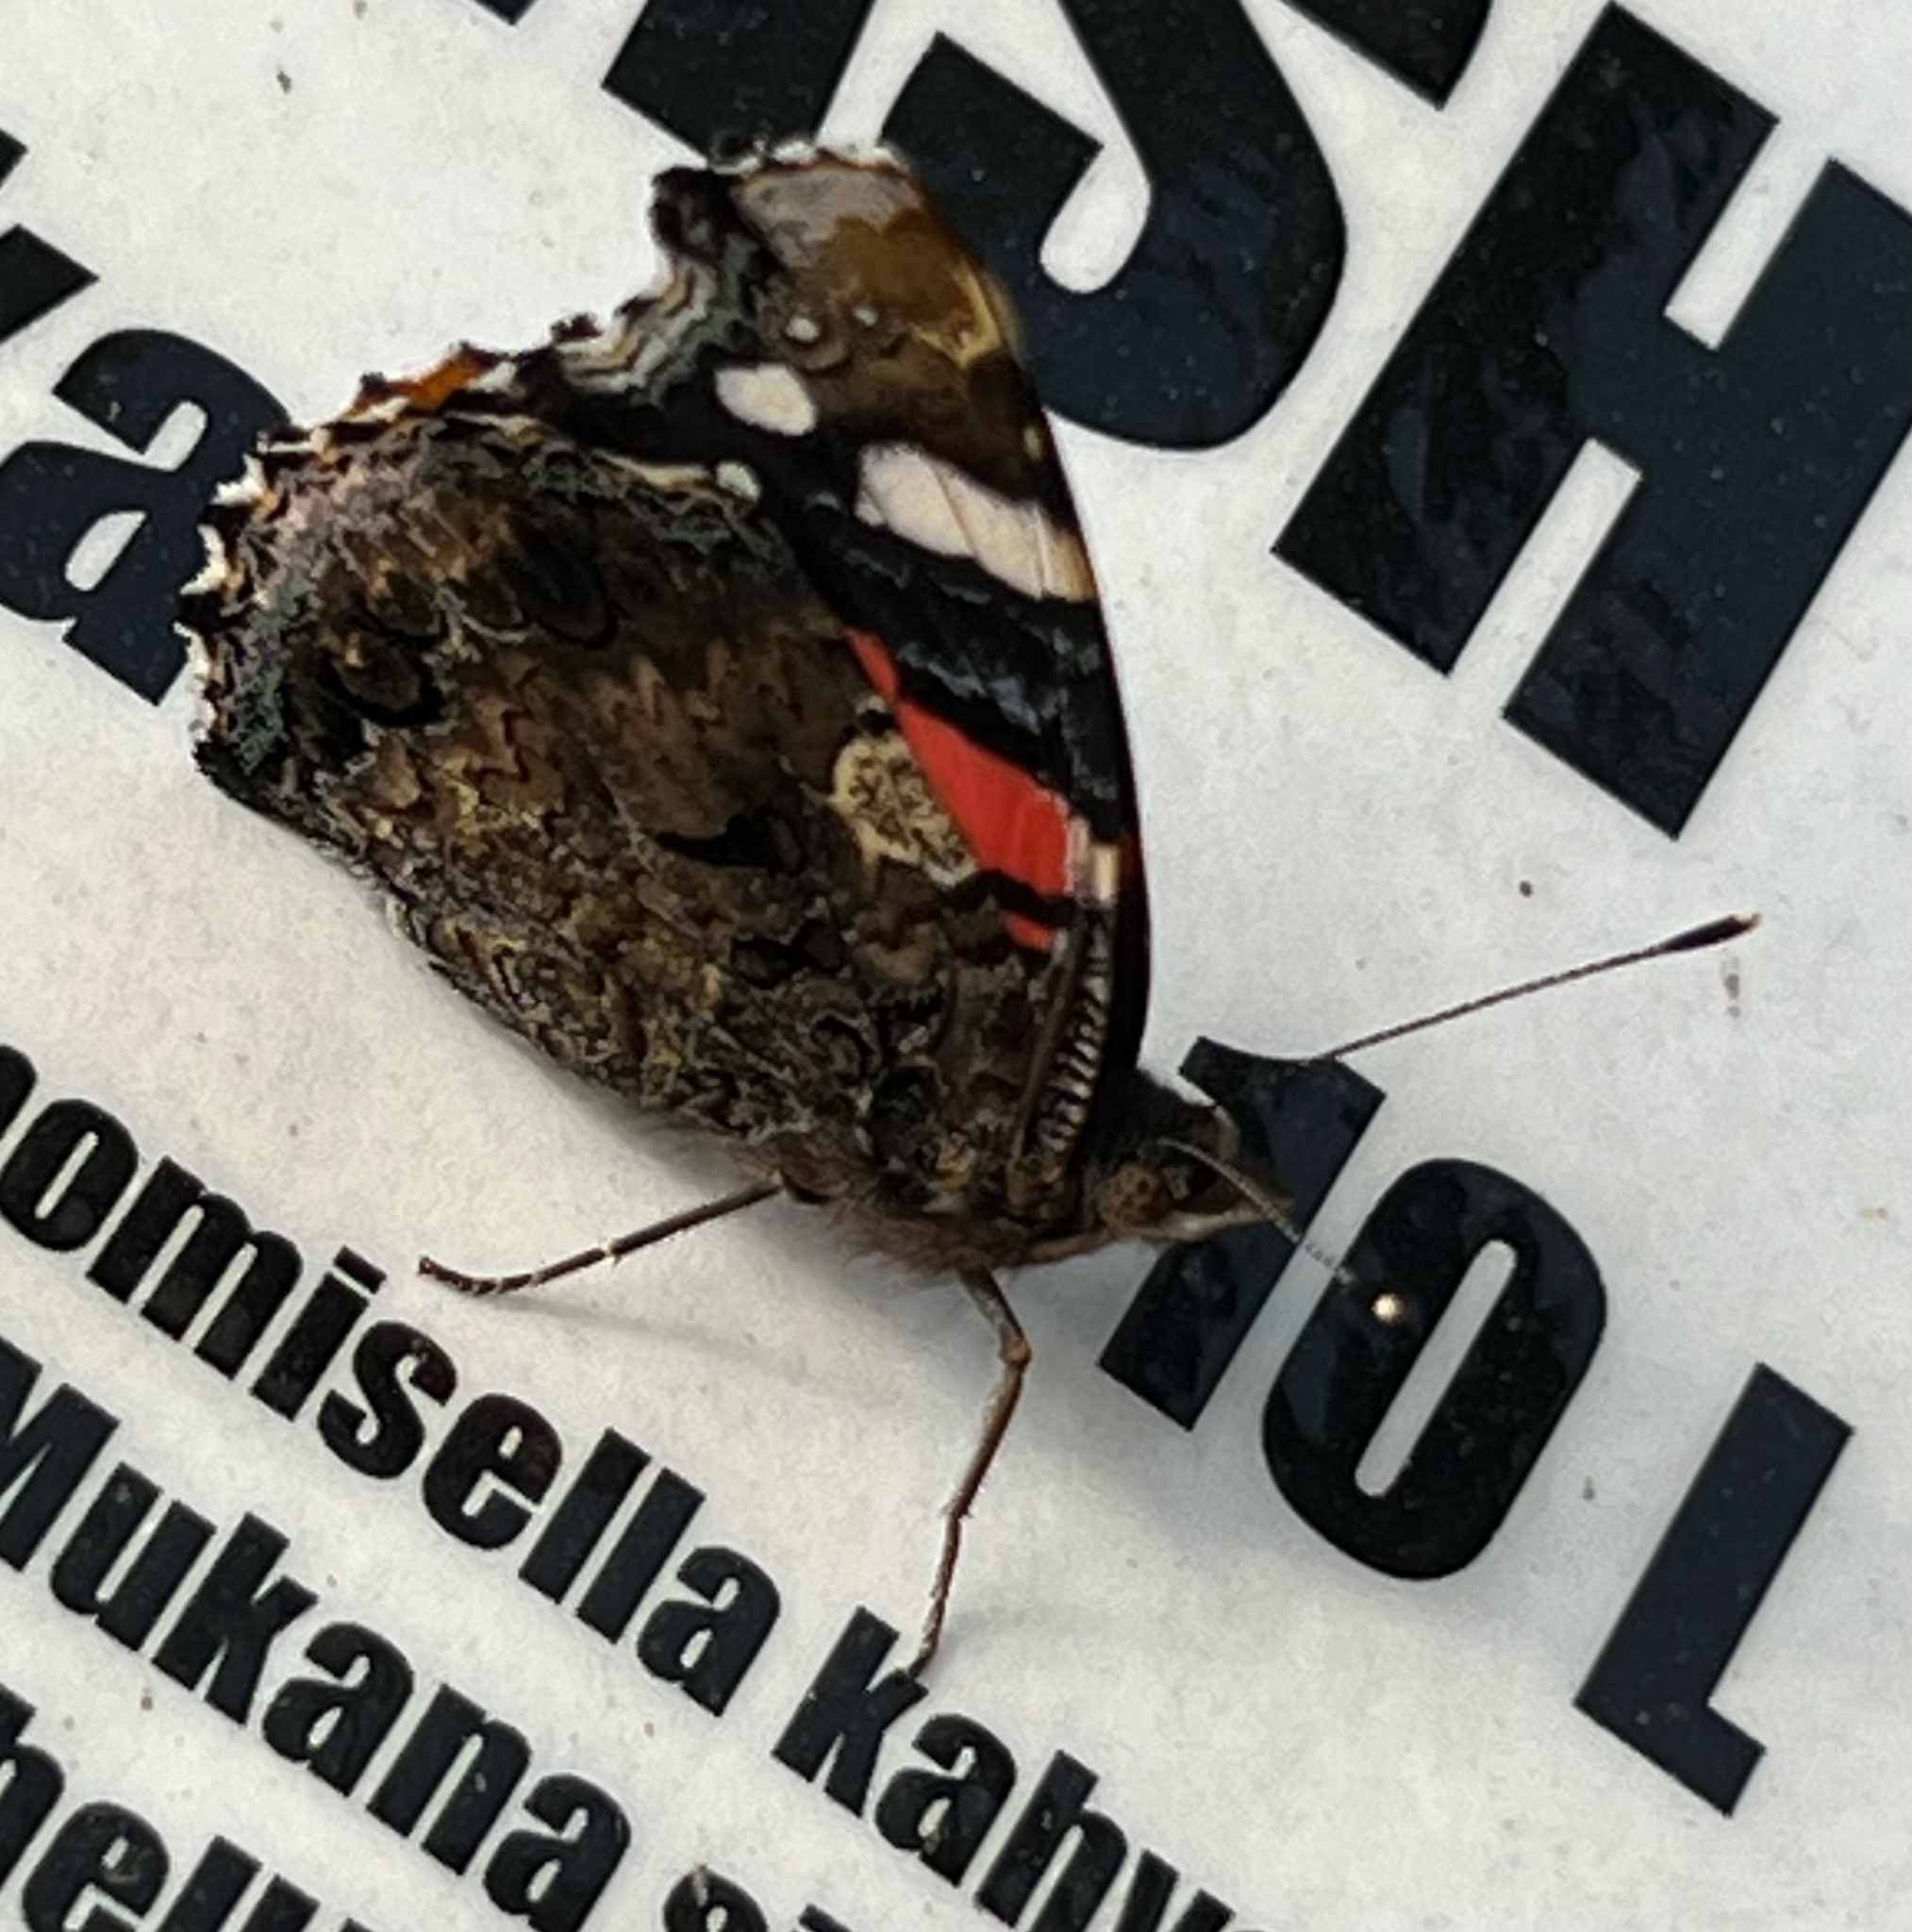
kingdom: Animalia
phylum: Arthropoda
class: Insecta
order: Lepidoptera
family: Nymphalidae
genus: Vanessa
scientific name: Vanessa atalanta
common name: Red admiral
